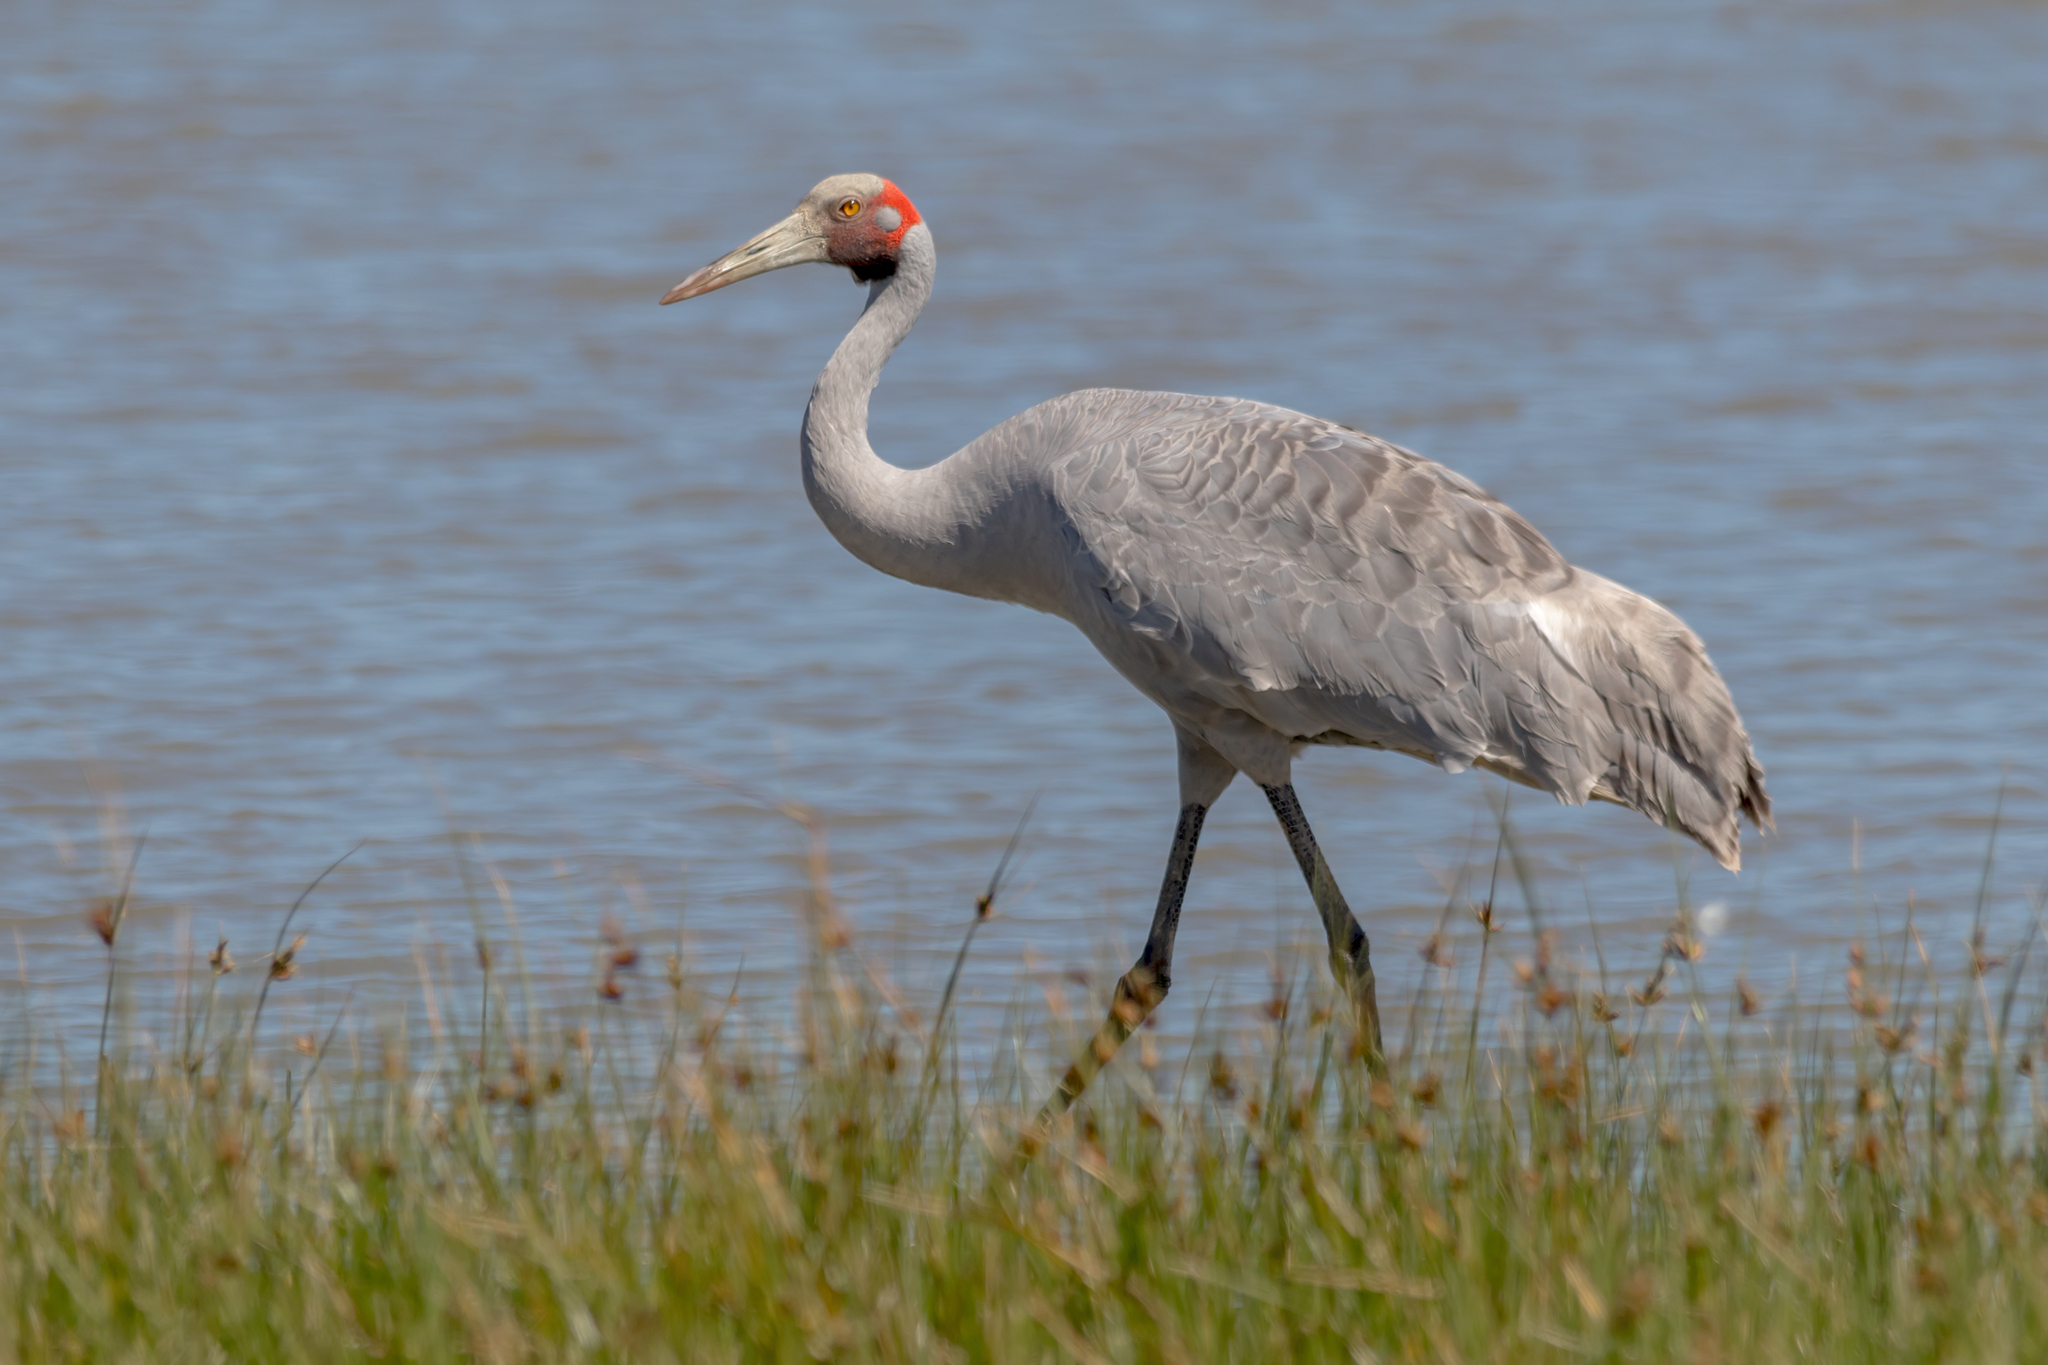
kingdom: Animalia
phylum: Chordata
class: Aves
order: Gruiformes
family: Gruidae
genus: Grus
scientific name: Grus rubicunda
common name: Brolga
